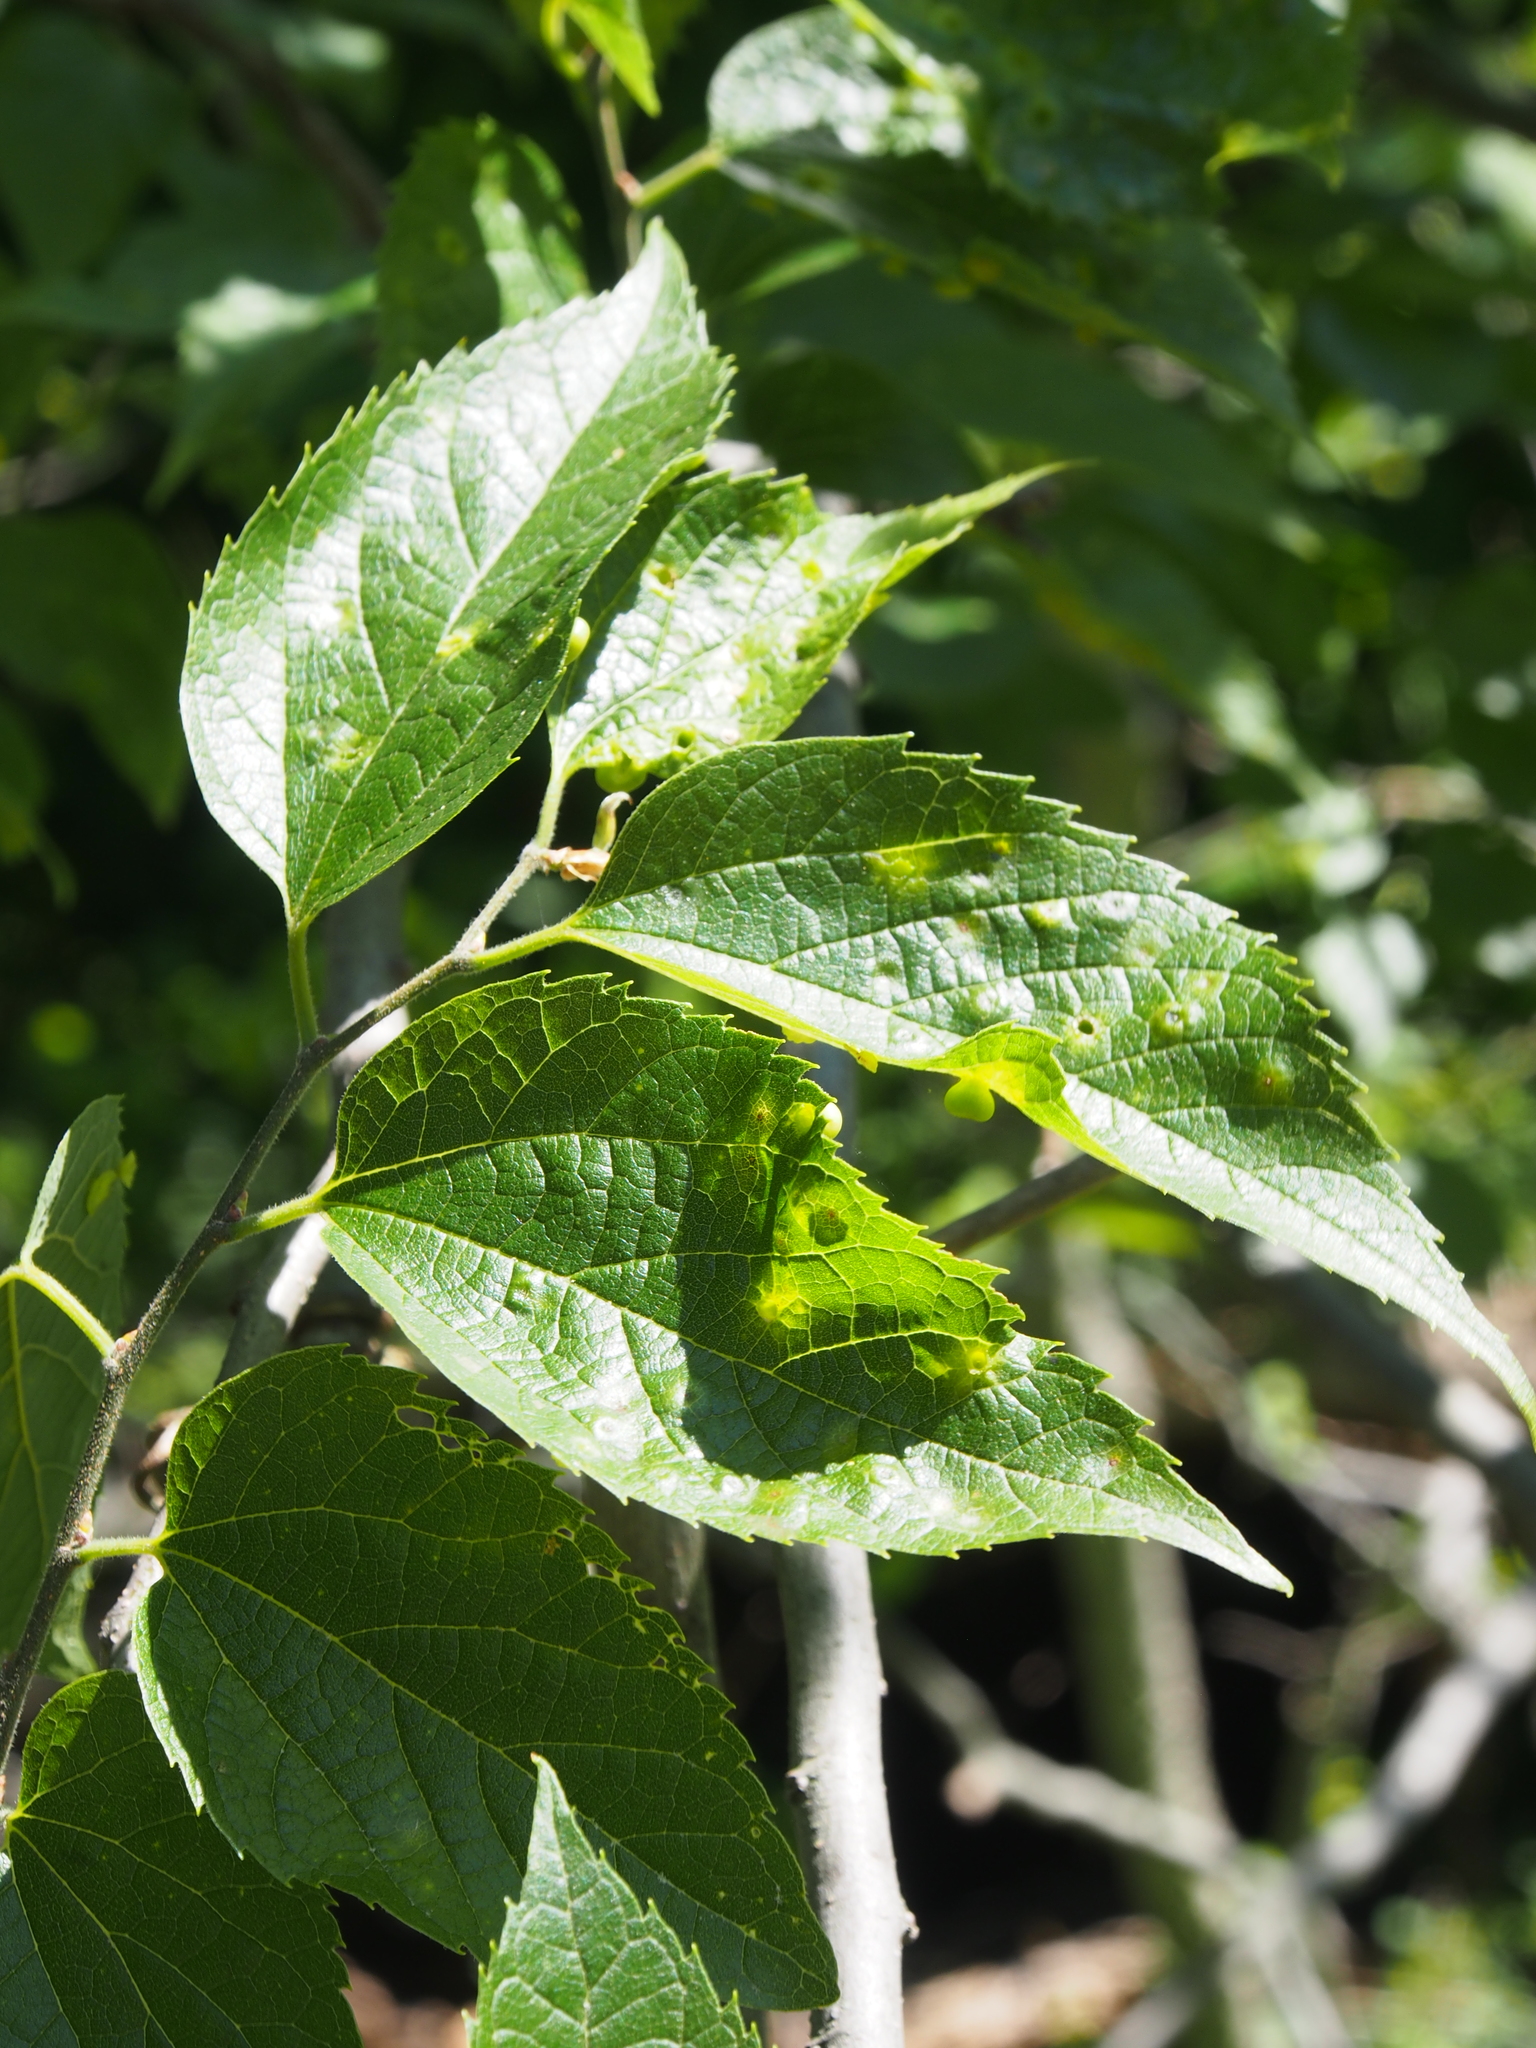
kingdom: Animalia
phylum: Arthropoda
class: Insecta
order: Hemiptera
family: Aphalaridae
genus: Pachypsylla
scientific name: Pachypsylla celtidisasterisca
